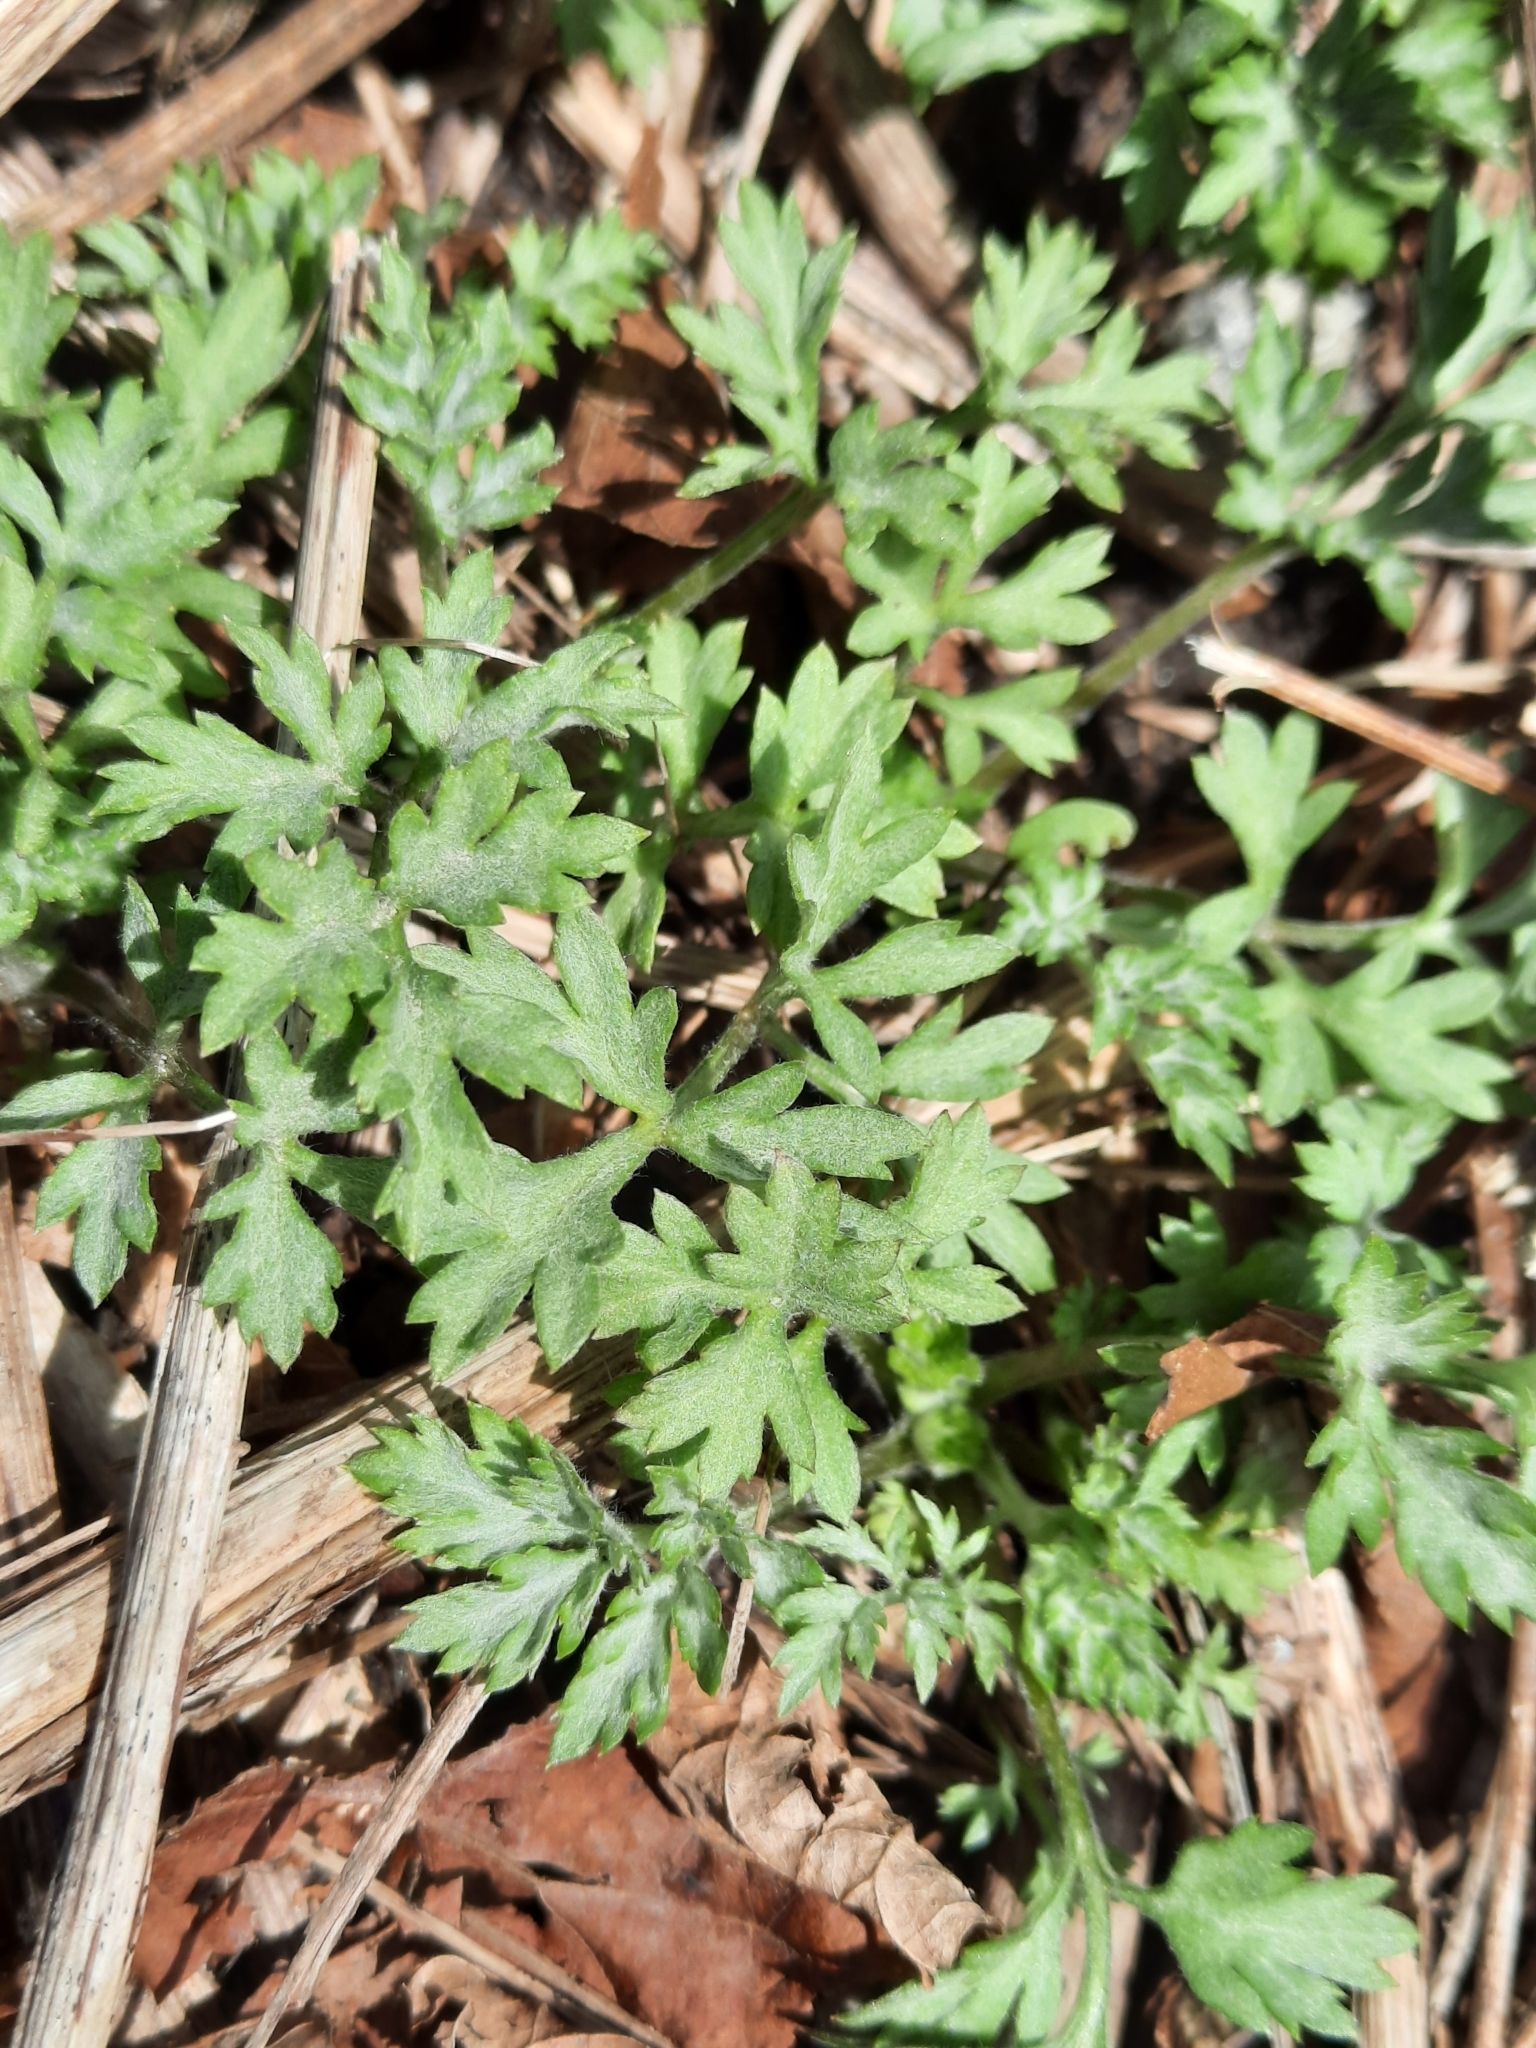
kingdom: Plantae
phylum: Tracheophyta
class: Magnoliopsida
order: Asterales
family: Asteraceae
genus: Artemisia
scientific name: Artemisia vulgaris
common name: Mugwort
